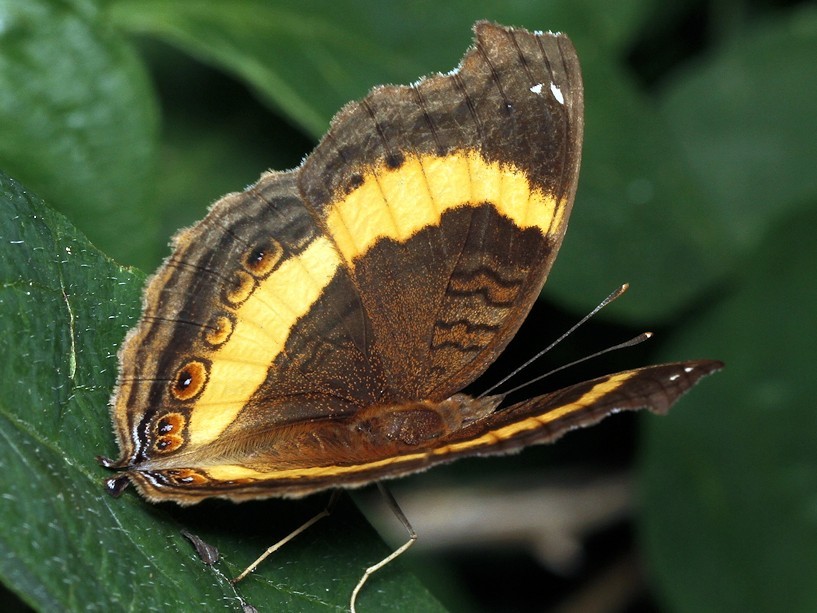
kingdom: Animalia
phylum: Arthropoda
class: Insecta
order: Lepidoptera
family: Nymphalidae
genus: Junonia
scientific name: Junonia terea
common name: Soldier pansy
